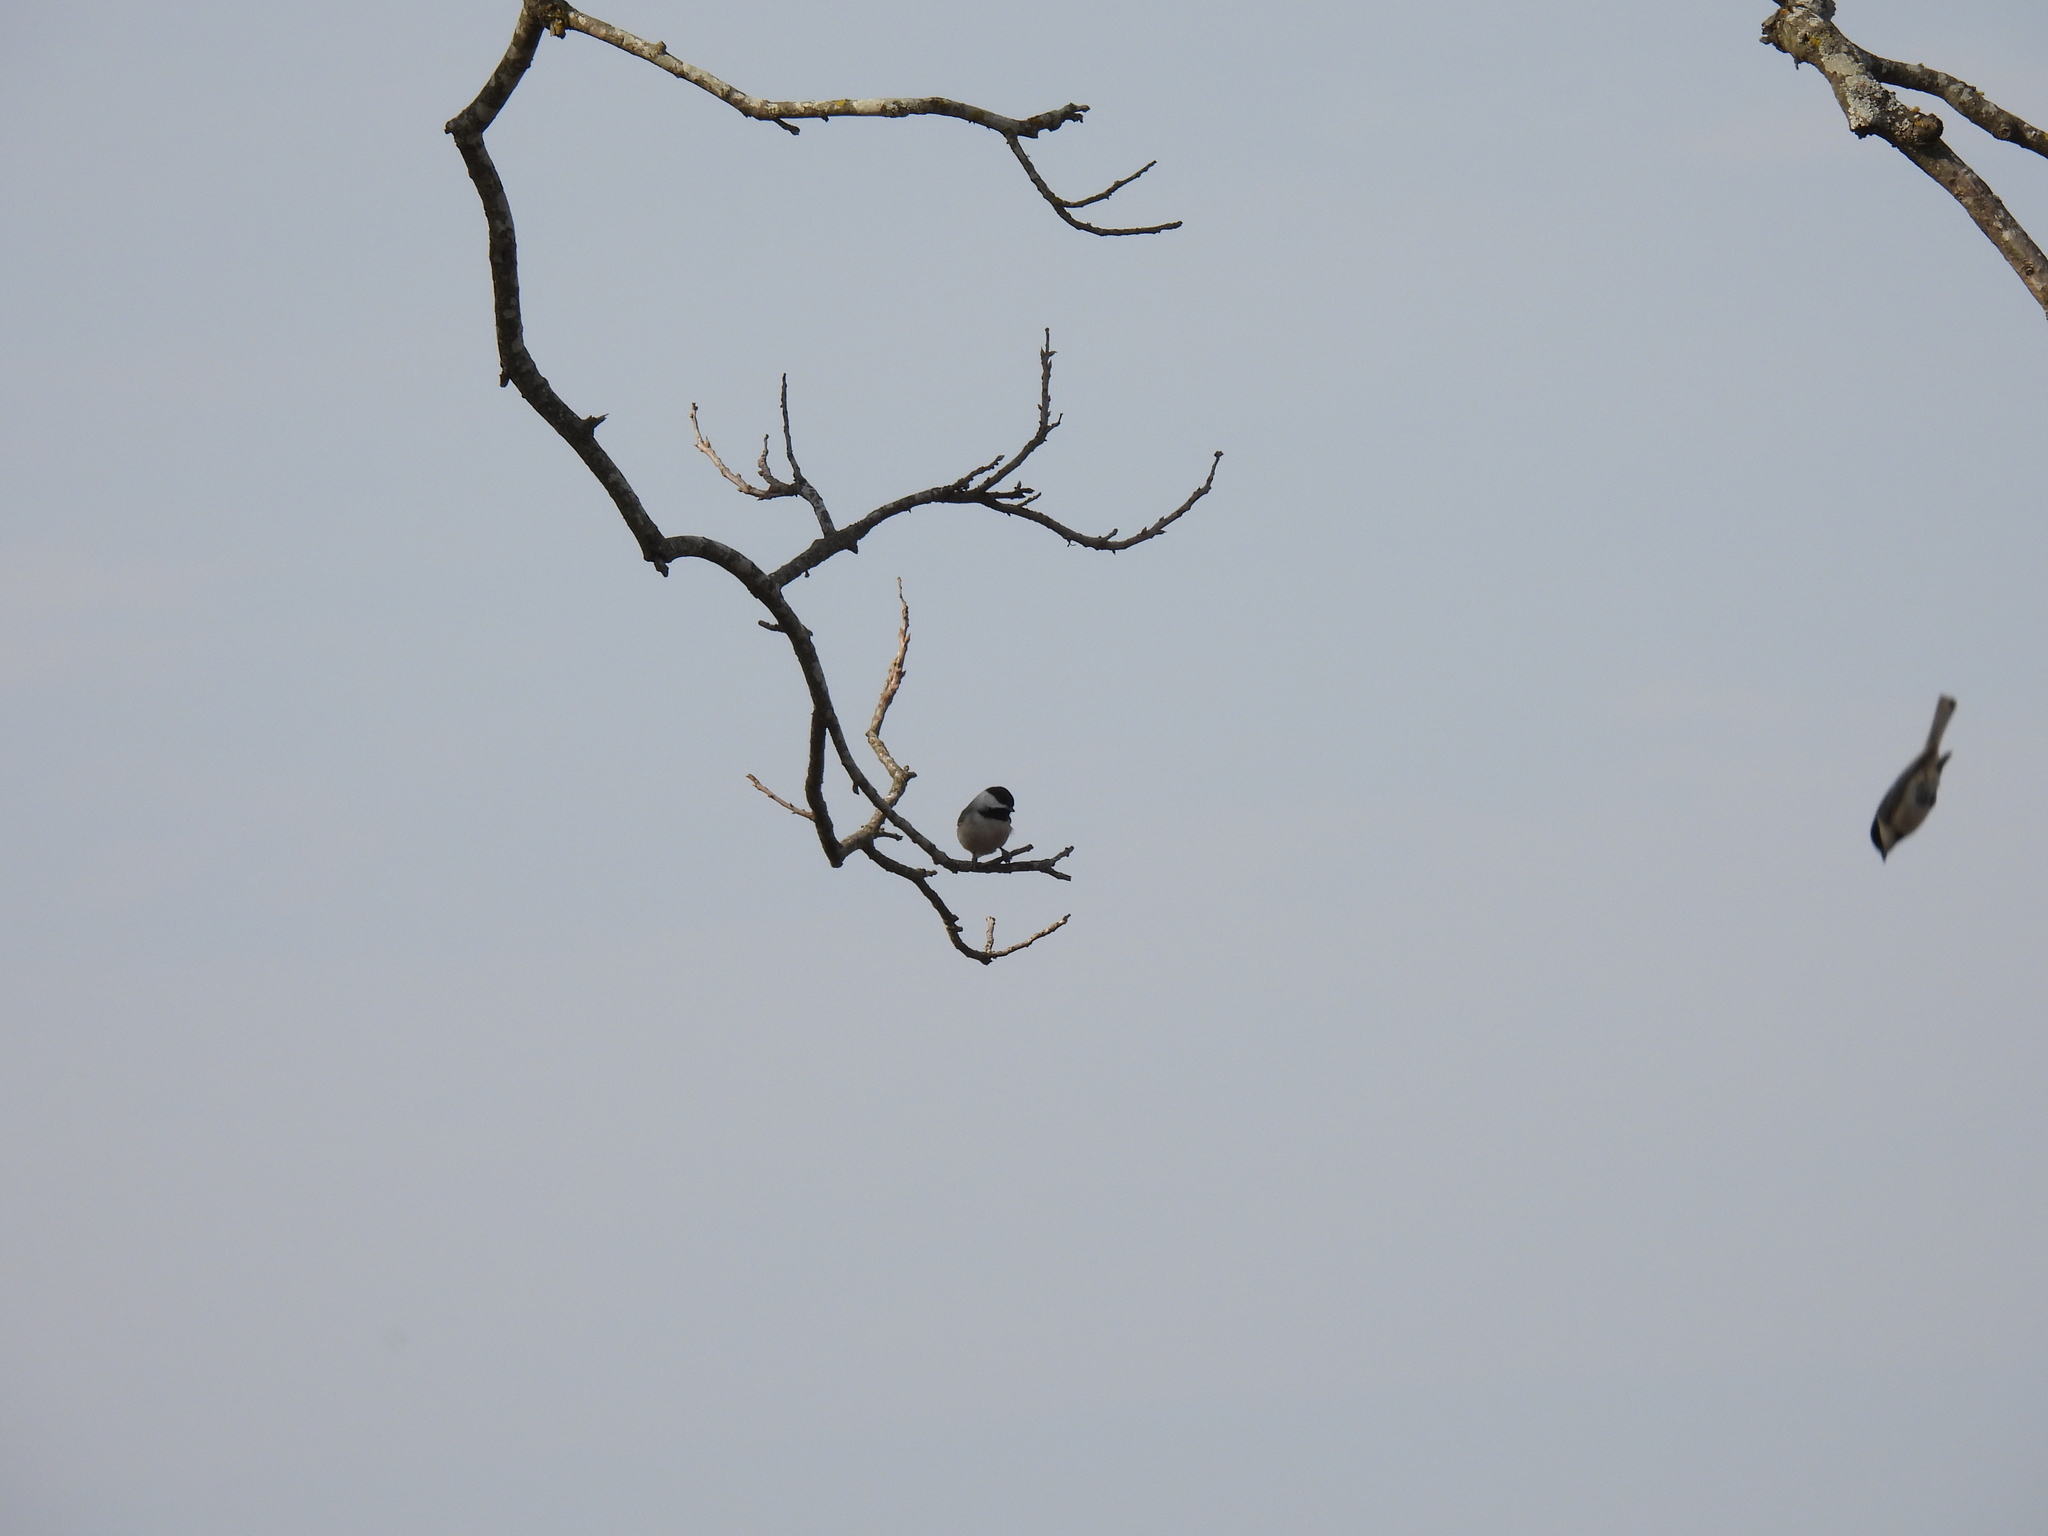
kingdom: Animalia
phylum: Chordata
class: Aves
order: Passeriformes
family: Paridae
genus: Poecile
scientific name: Poecile carolinensis
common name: Carolina chickadee
